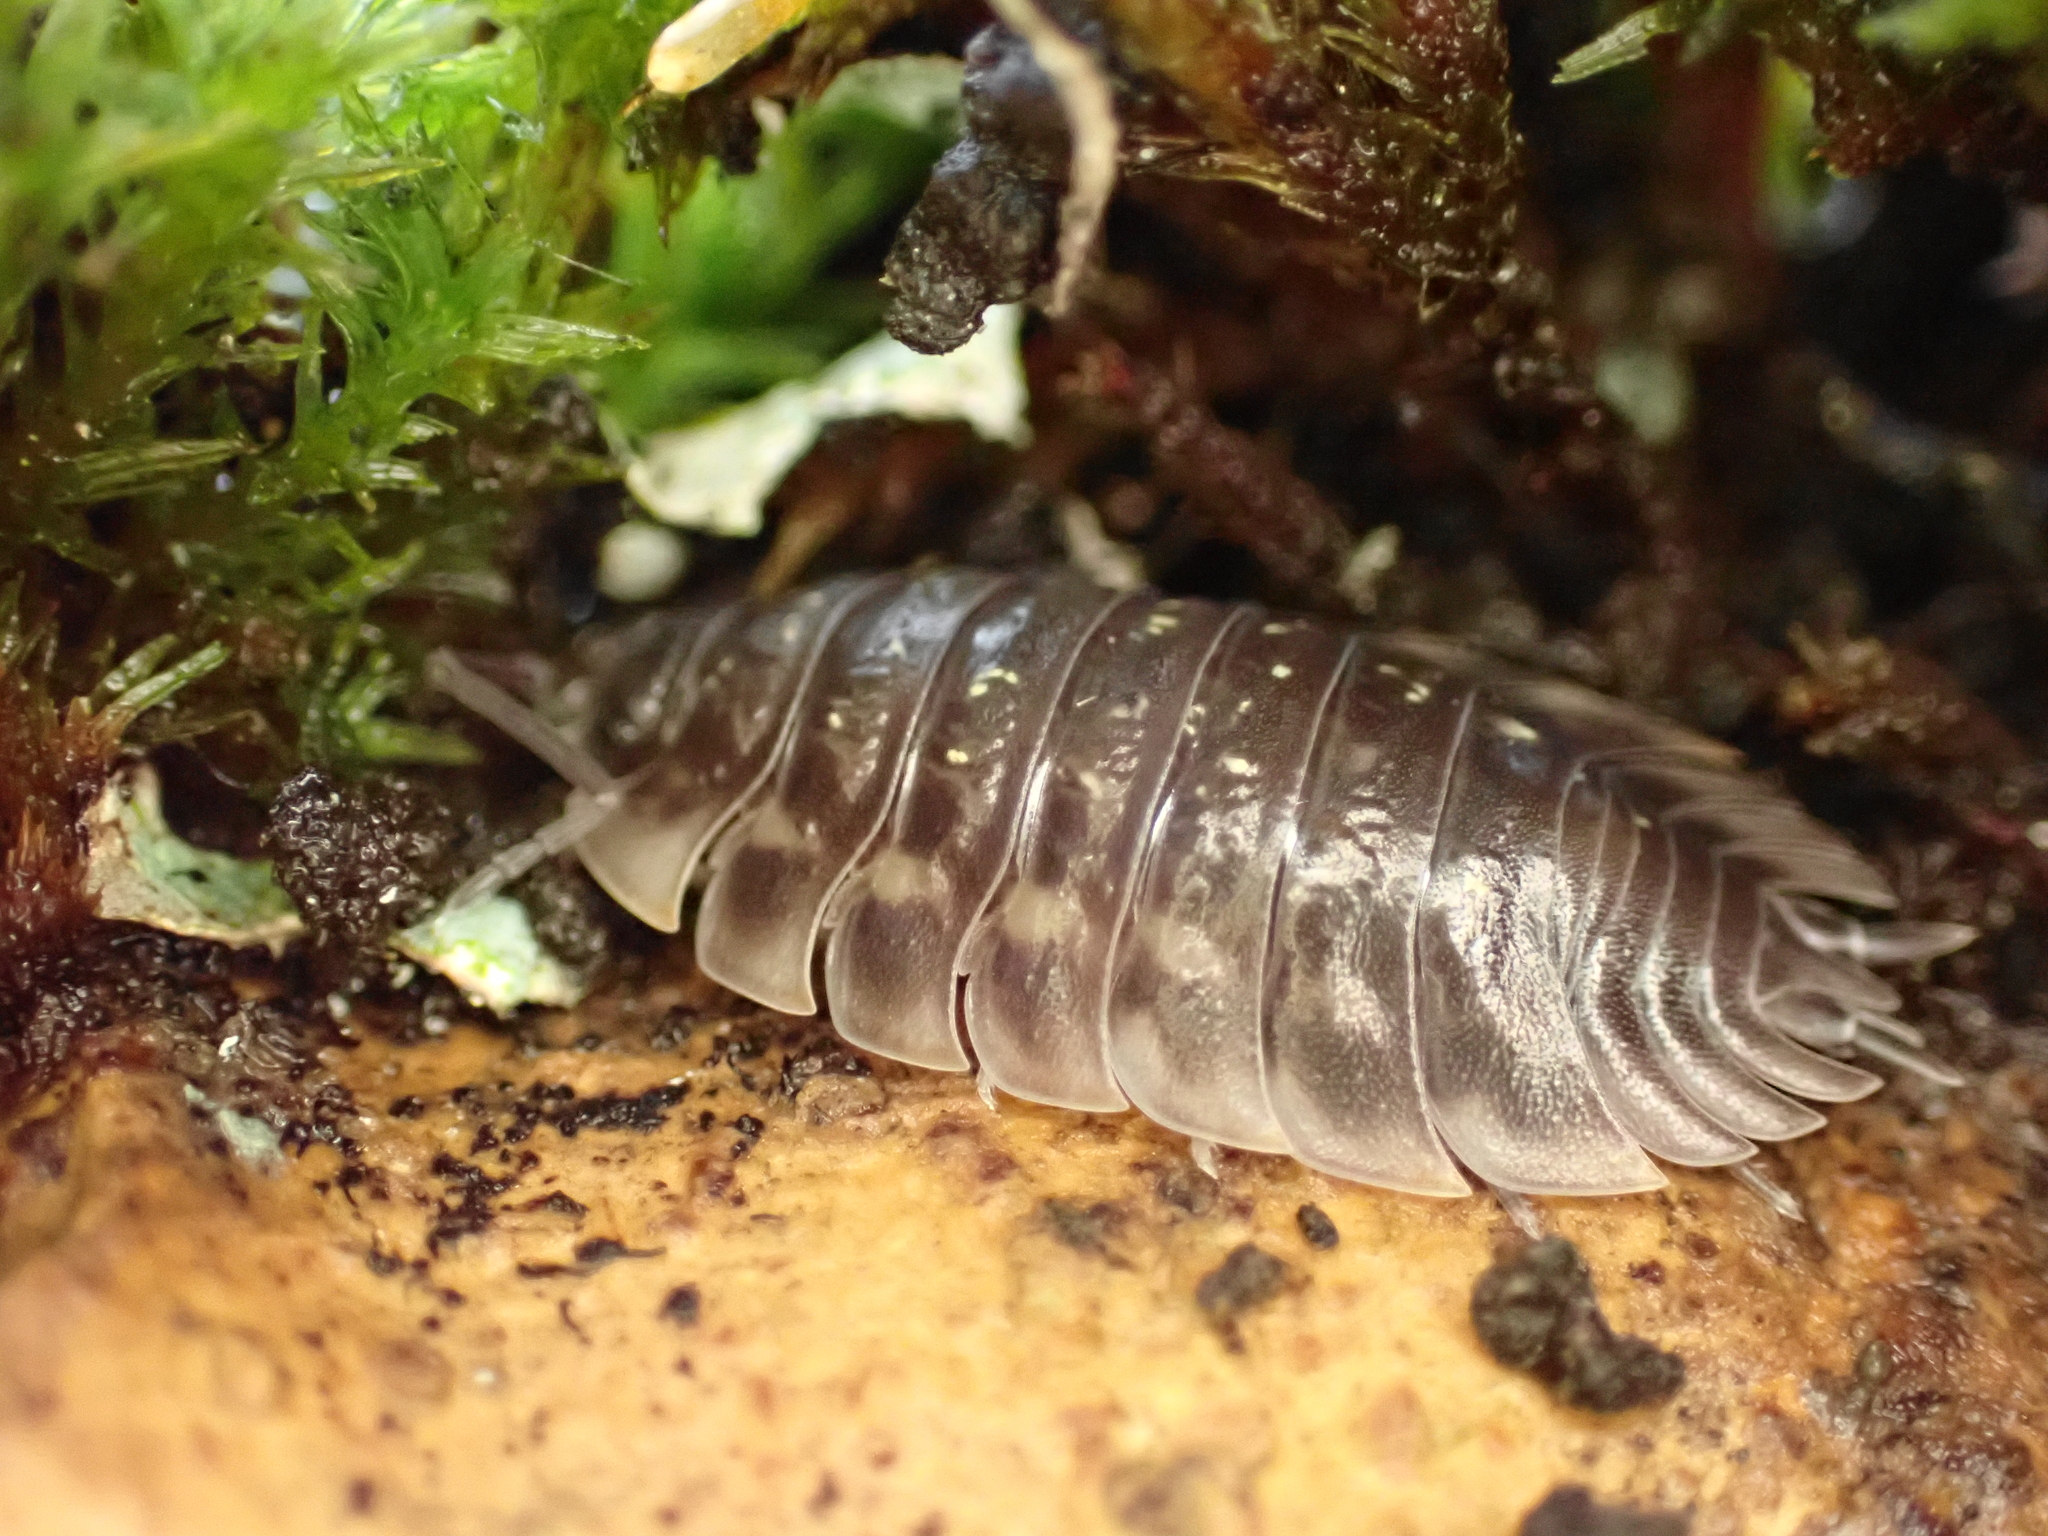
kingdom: Animalia
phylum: Arthropoda
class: Malacostraca
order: Isopoda
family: Oniscidae
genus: Oniscus
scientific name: Oniscus asellus
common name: Common shiny woodlouse
